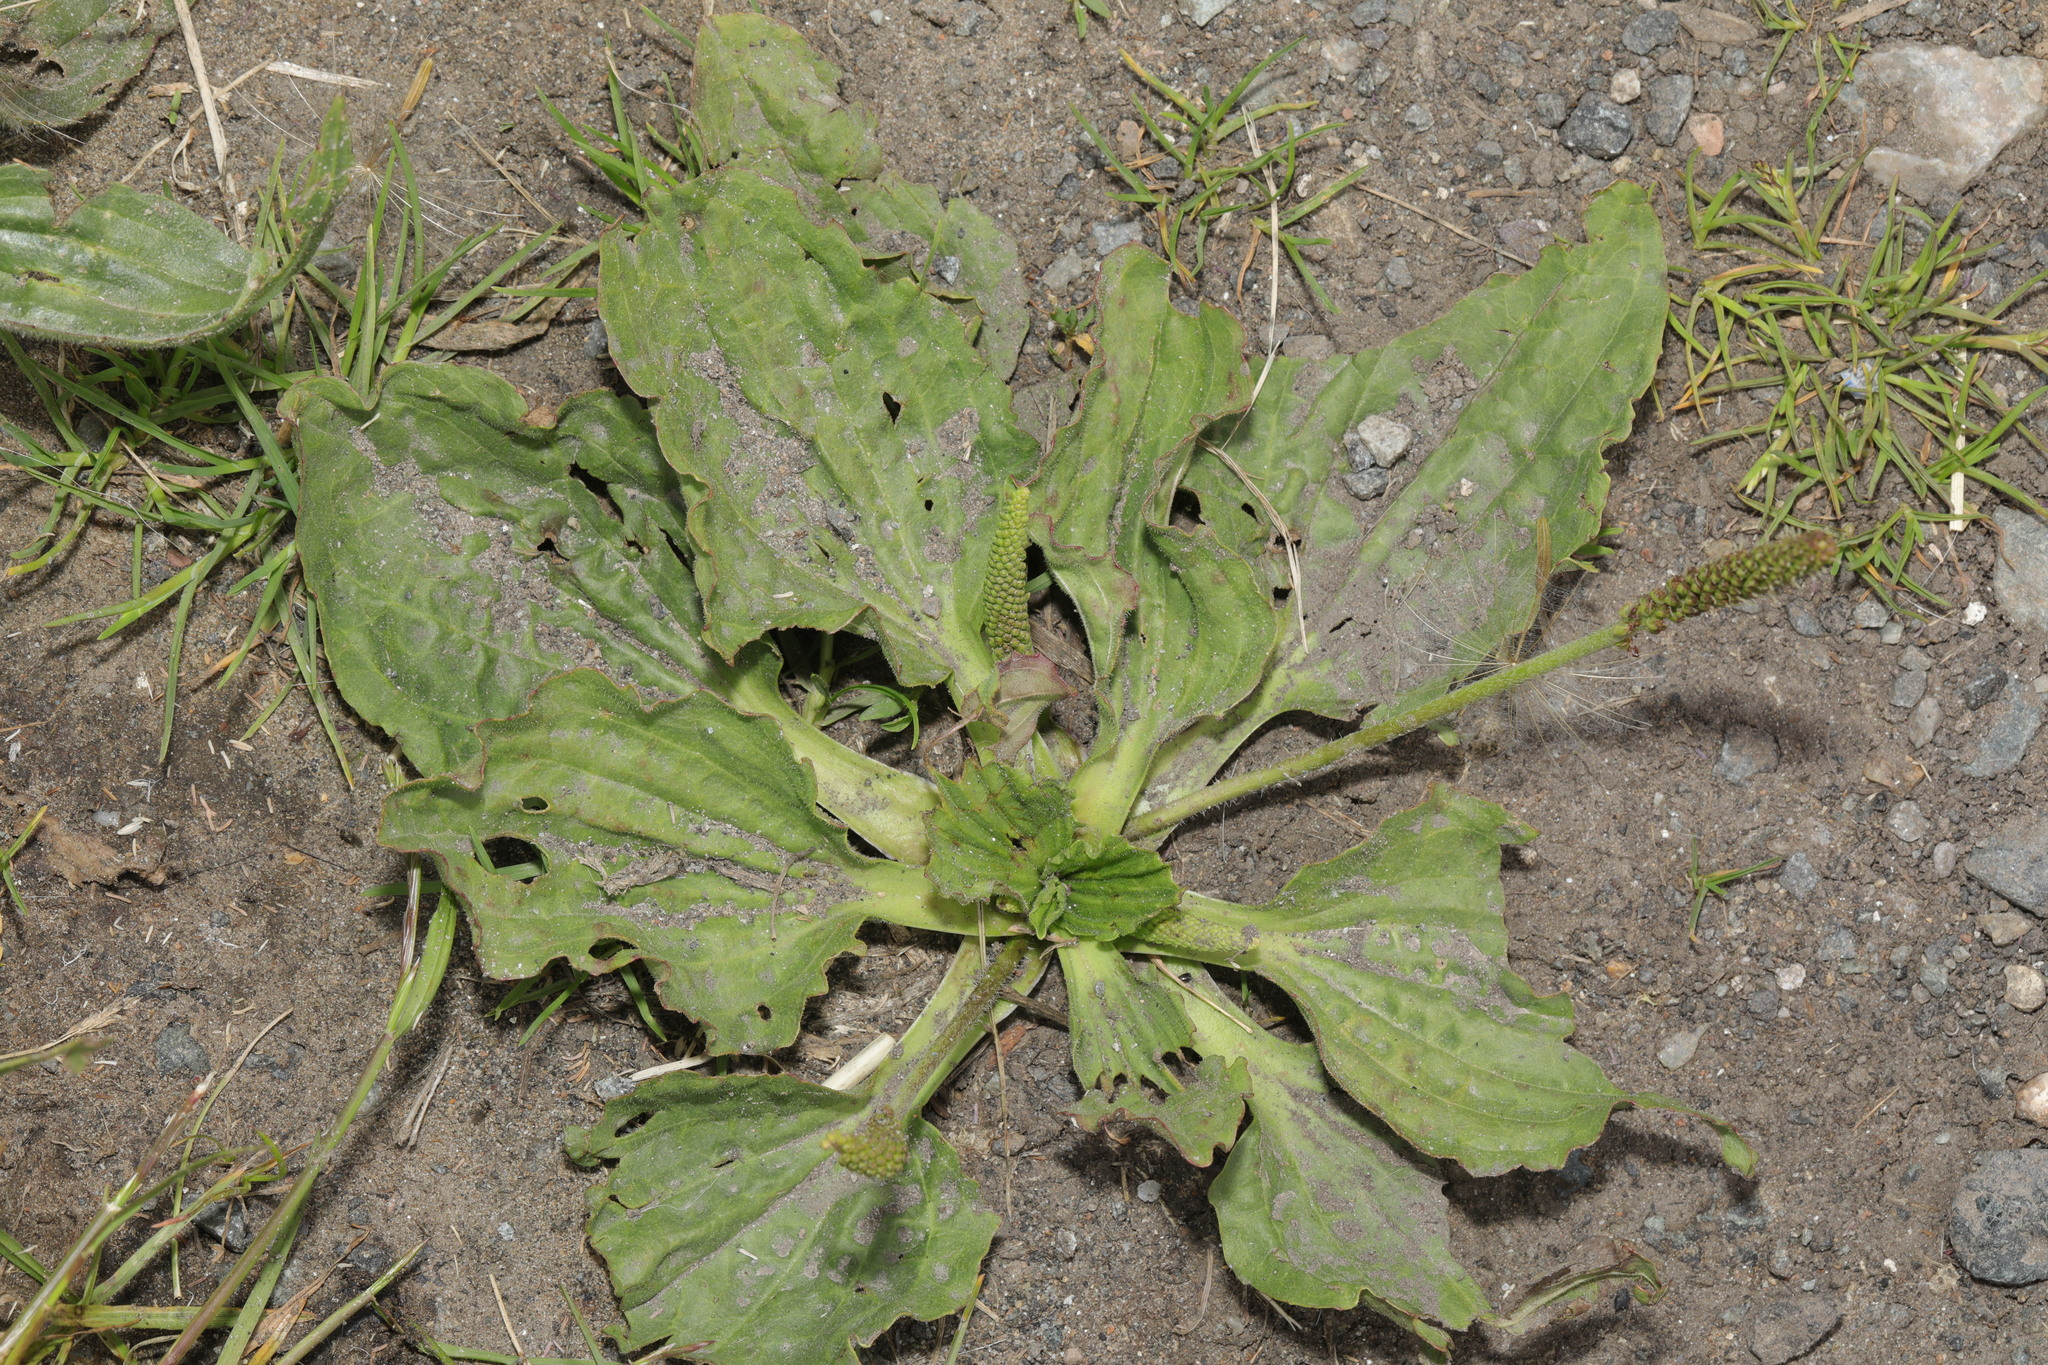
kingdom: Plantae
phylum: Tracheophyta
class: Magnoliopsida
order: Lamiales
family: Plantaginaceae
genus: Plantago
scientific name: Plantago major
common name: Common plantain
